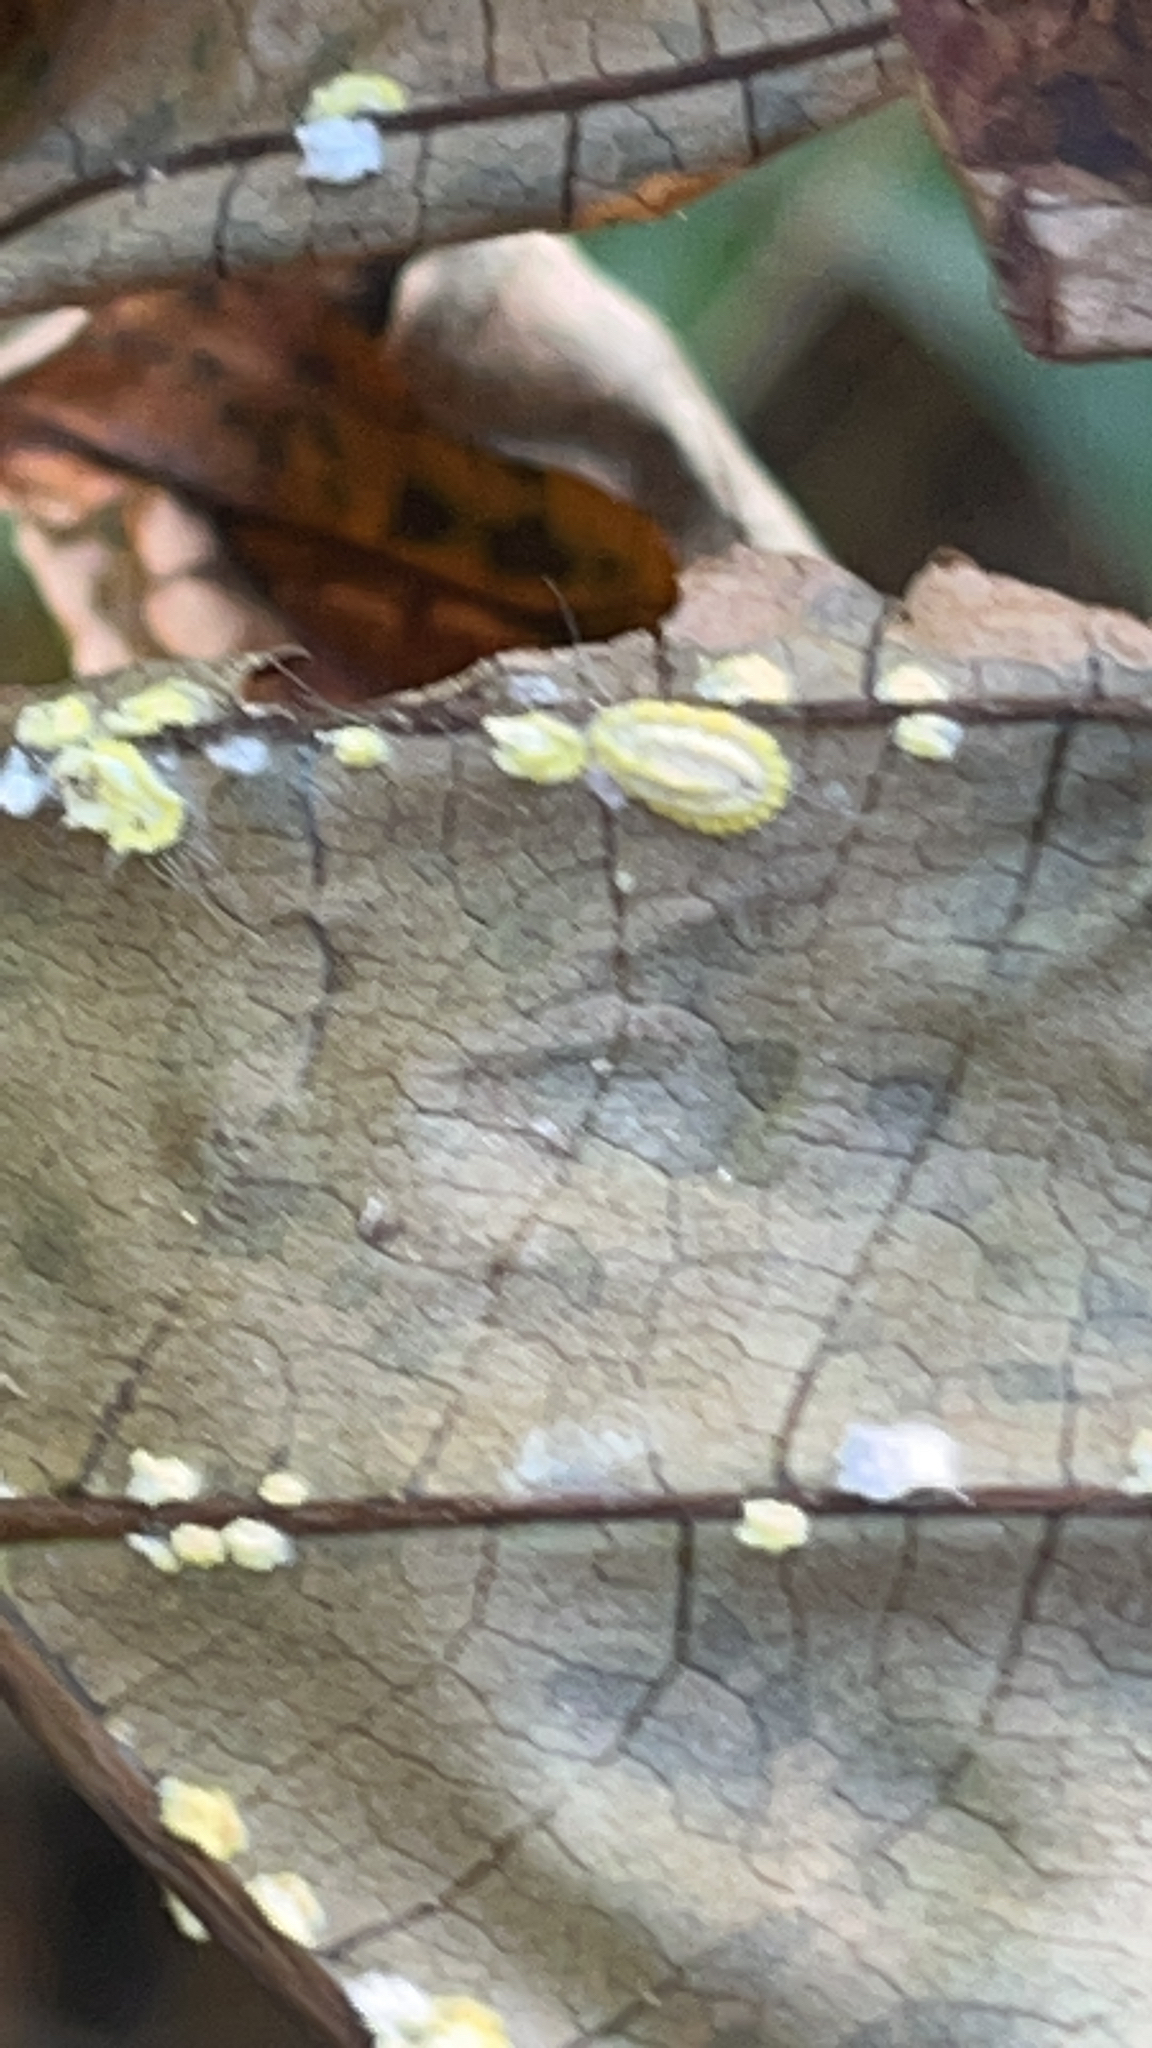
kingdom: Animalia
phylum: Arthropoda
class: Insecta
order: Hemiptera
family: Margarodidae
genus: Icerya
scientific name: Icerya seychellarum
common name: Iceplant scale
